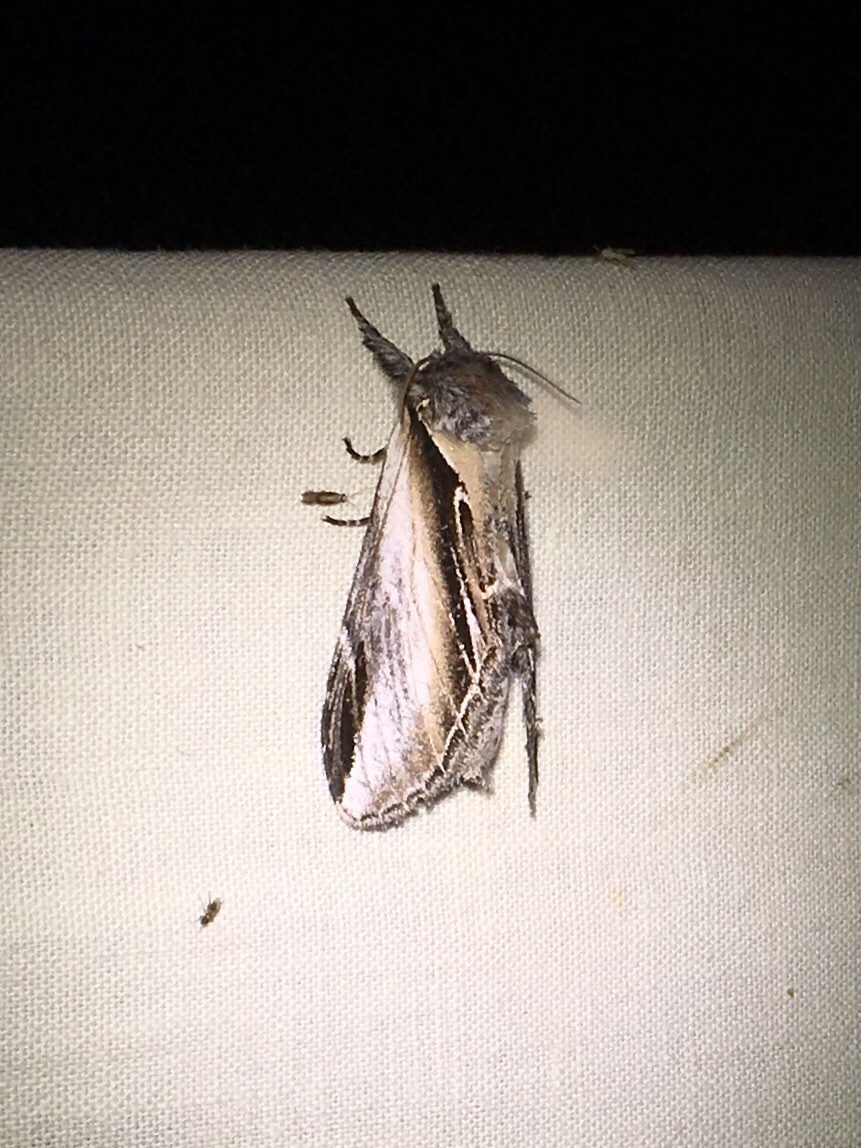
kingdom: Animalia
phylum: Arthropoda
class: Insecta
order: Lepidoptera
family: Notodontidae
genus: Pheosia
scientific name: Pheosia rimosa
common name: Black-rimmed prominent
